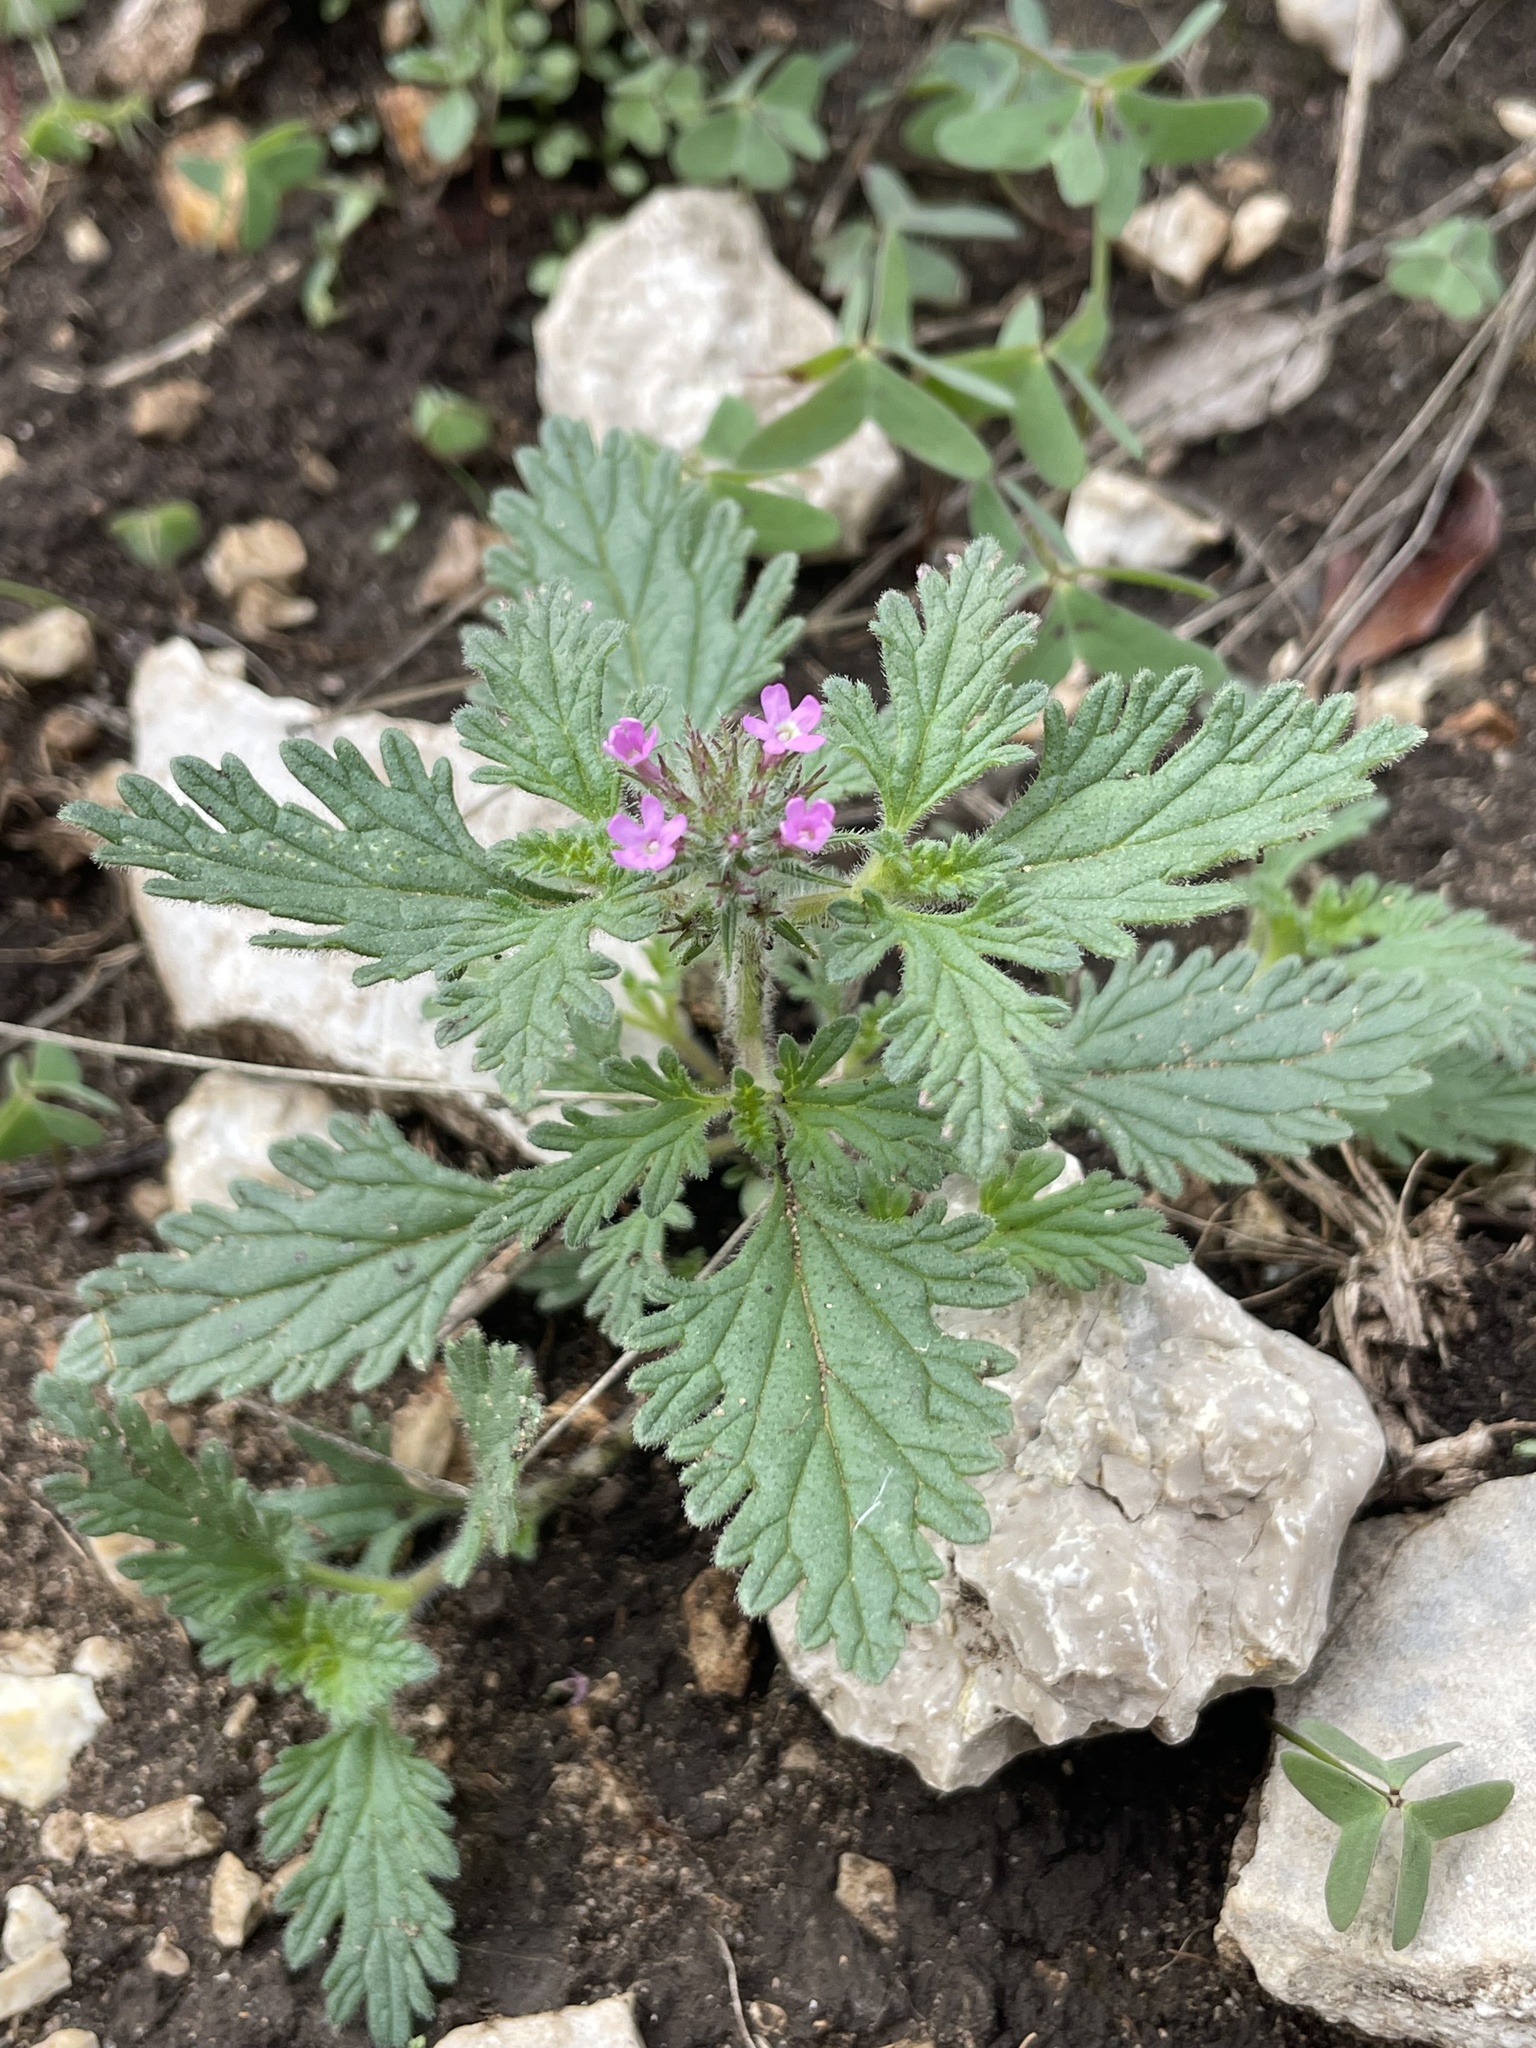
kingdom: Plantae
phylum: Tracheophyta
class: Magnoliopsida
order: Lamiales
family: Verbenaceae
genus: Verbena
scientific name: Verbena pumila
